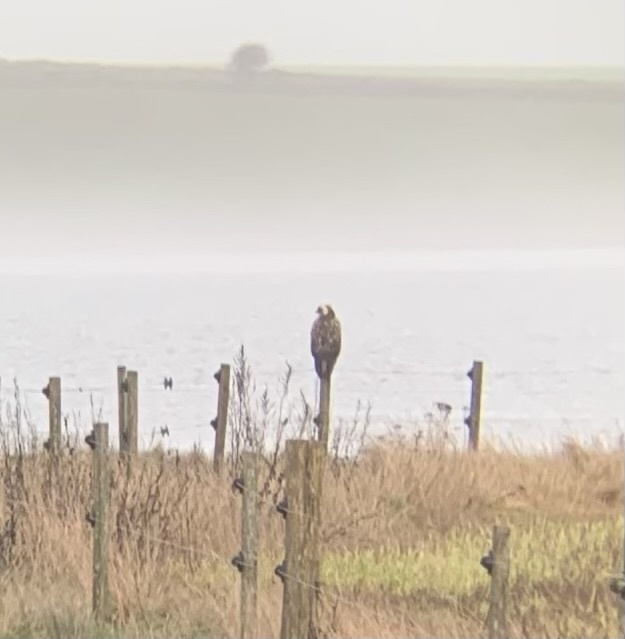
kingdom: Animalia
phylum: Chordata
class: Aves
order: Accipitriformes
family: Accipitridae
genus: Buteo
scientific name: Buteo buteo
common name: Common buzzard
